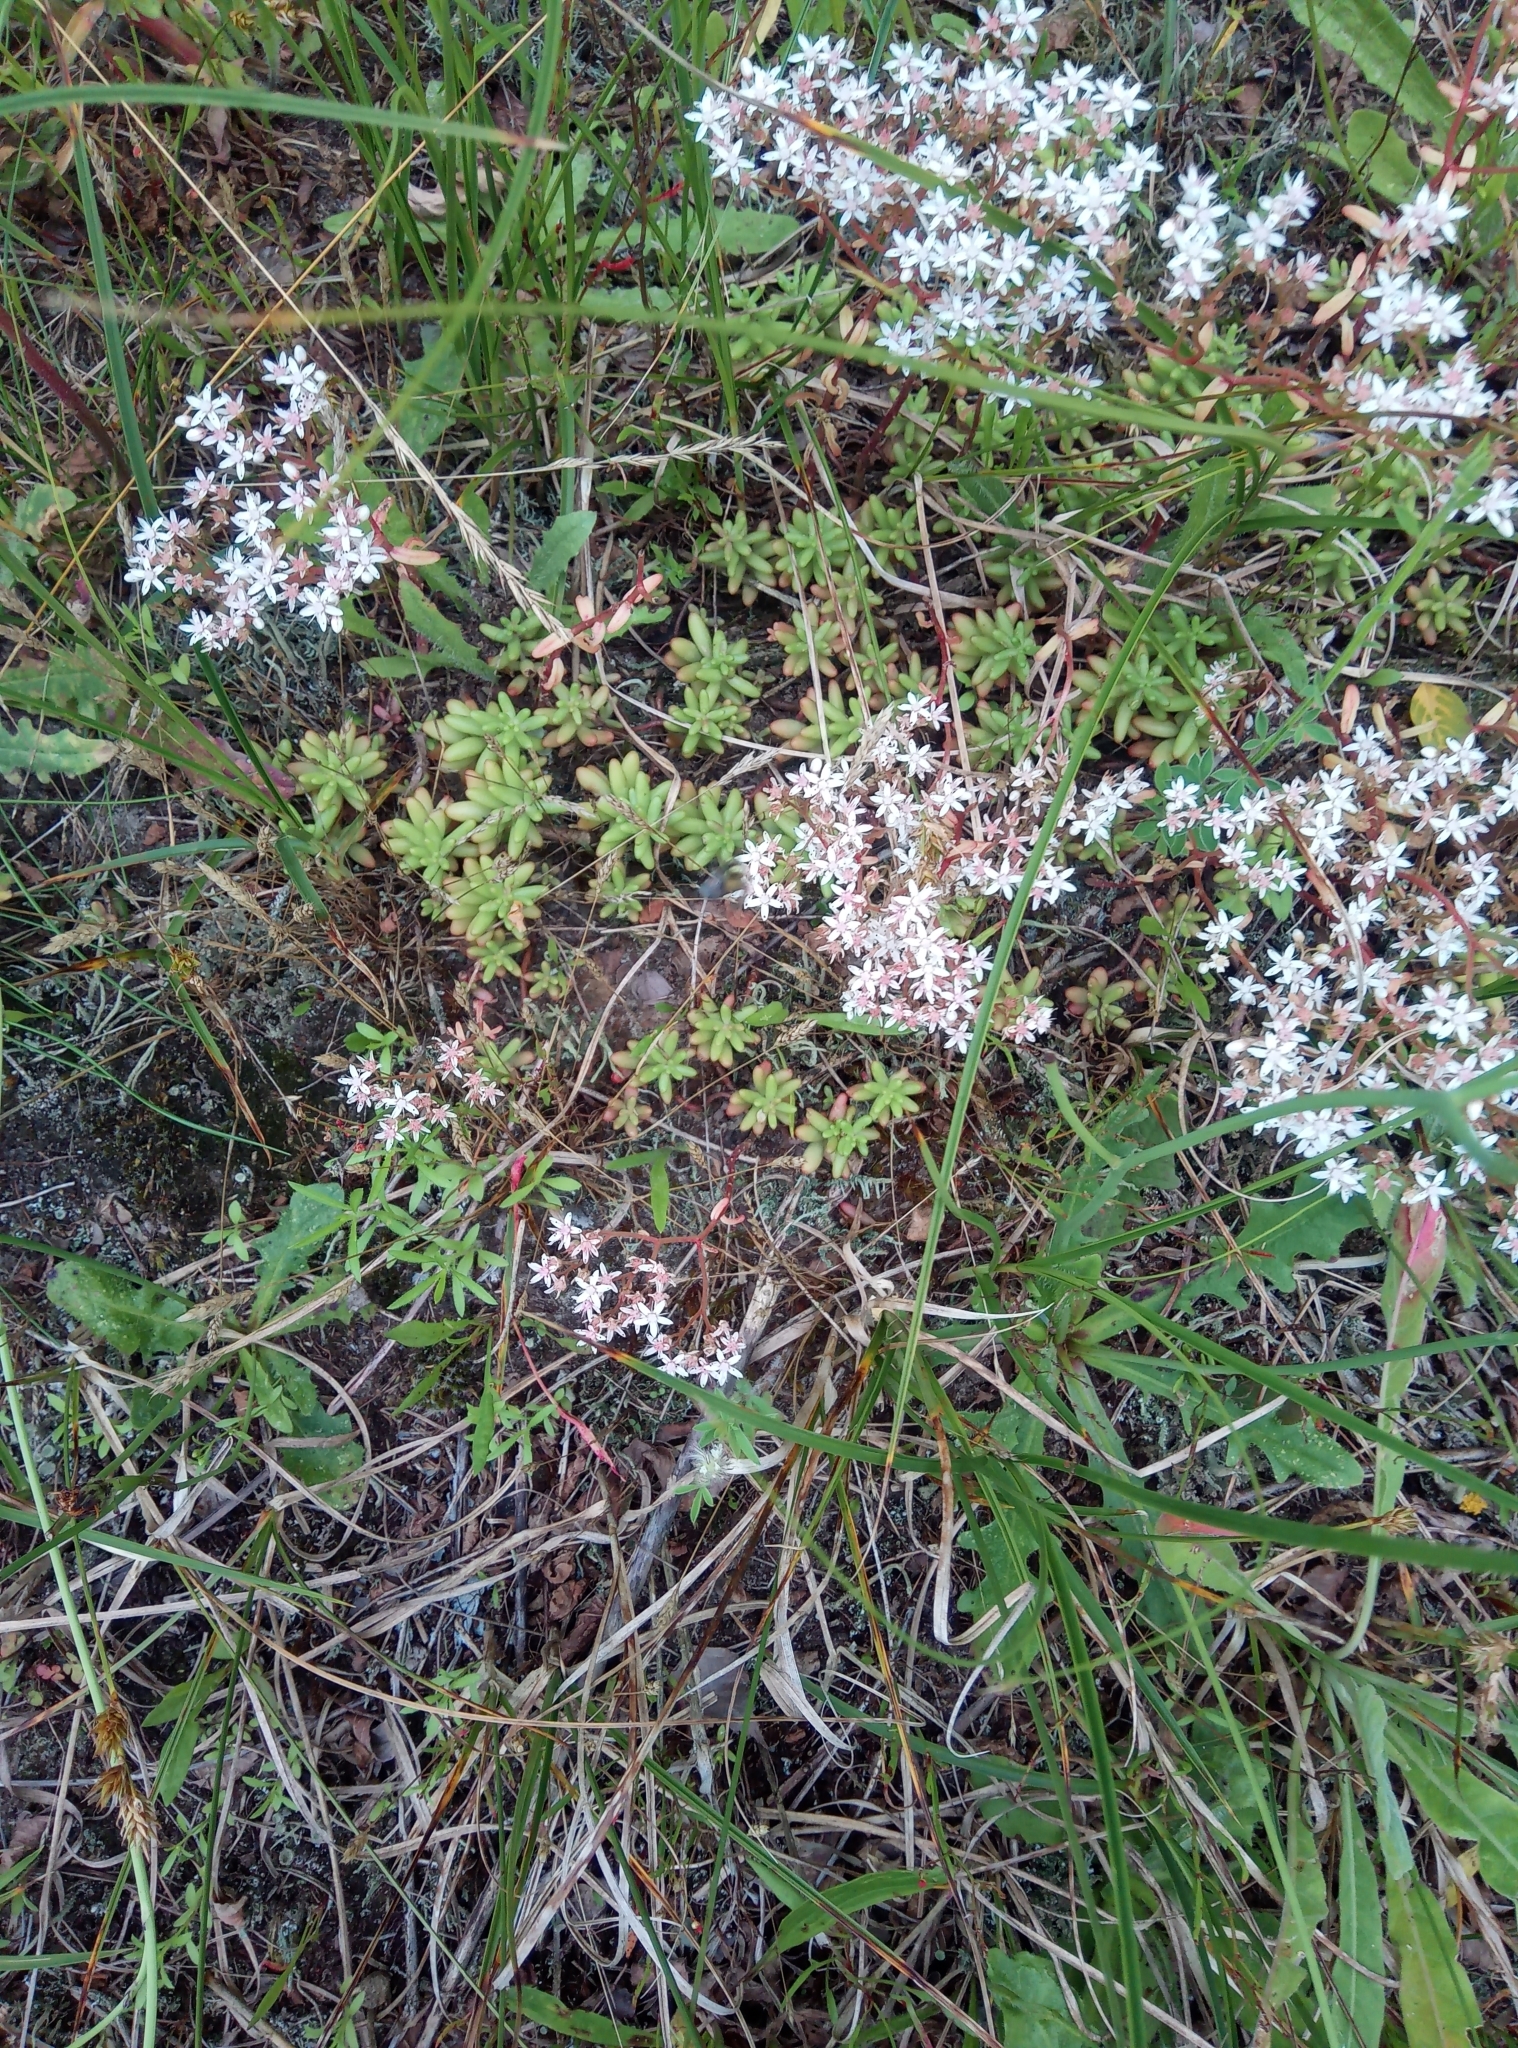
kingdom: Plantae
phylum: Tracheophyta
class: Magnoliopsida
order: Saxifragales
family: Crassulaceae
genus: Sedum
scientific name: Sedum album
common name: White stonecrop
